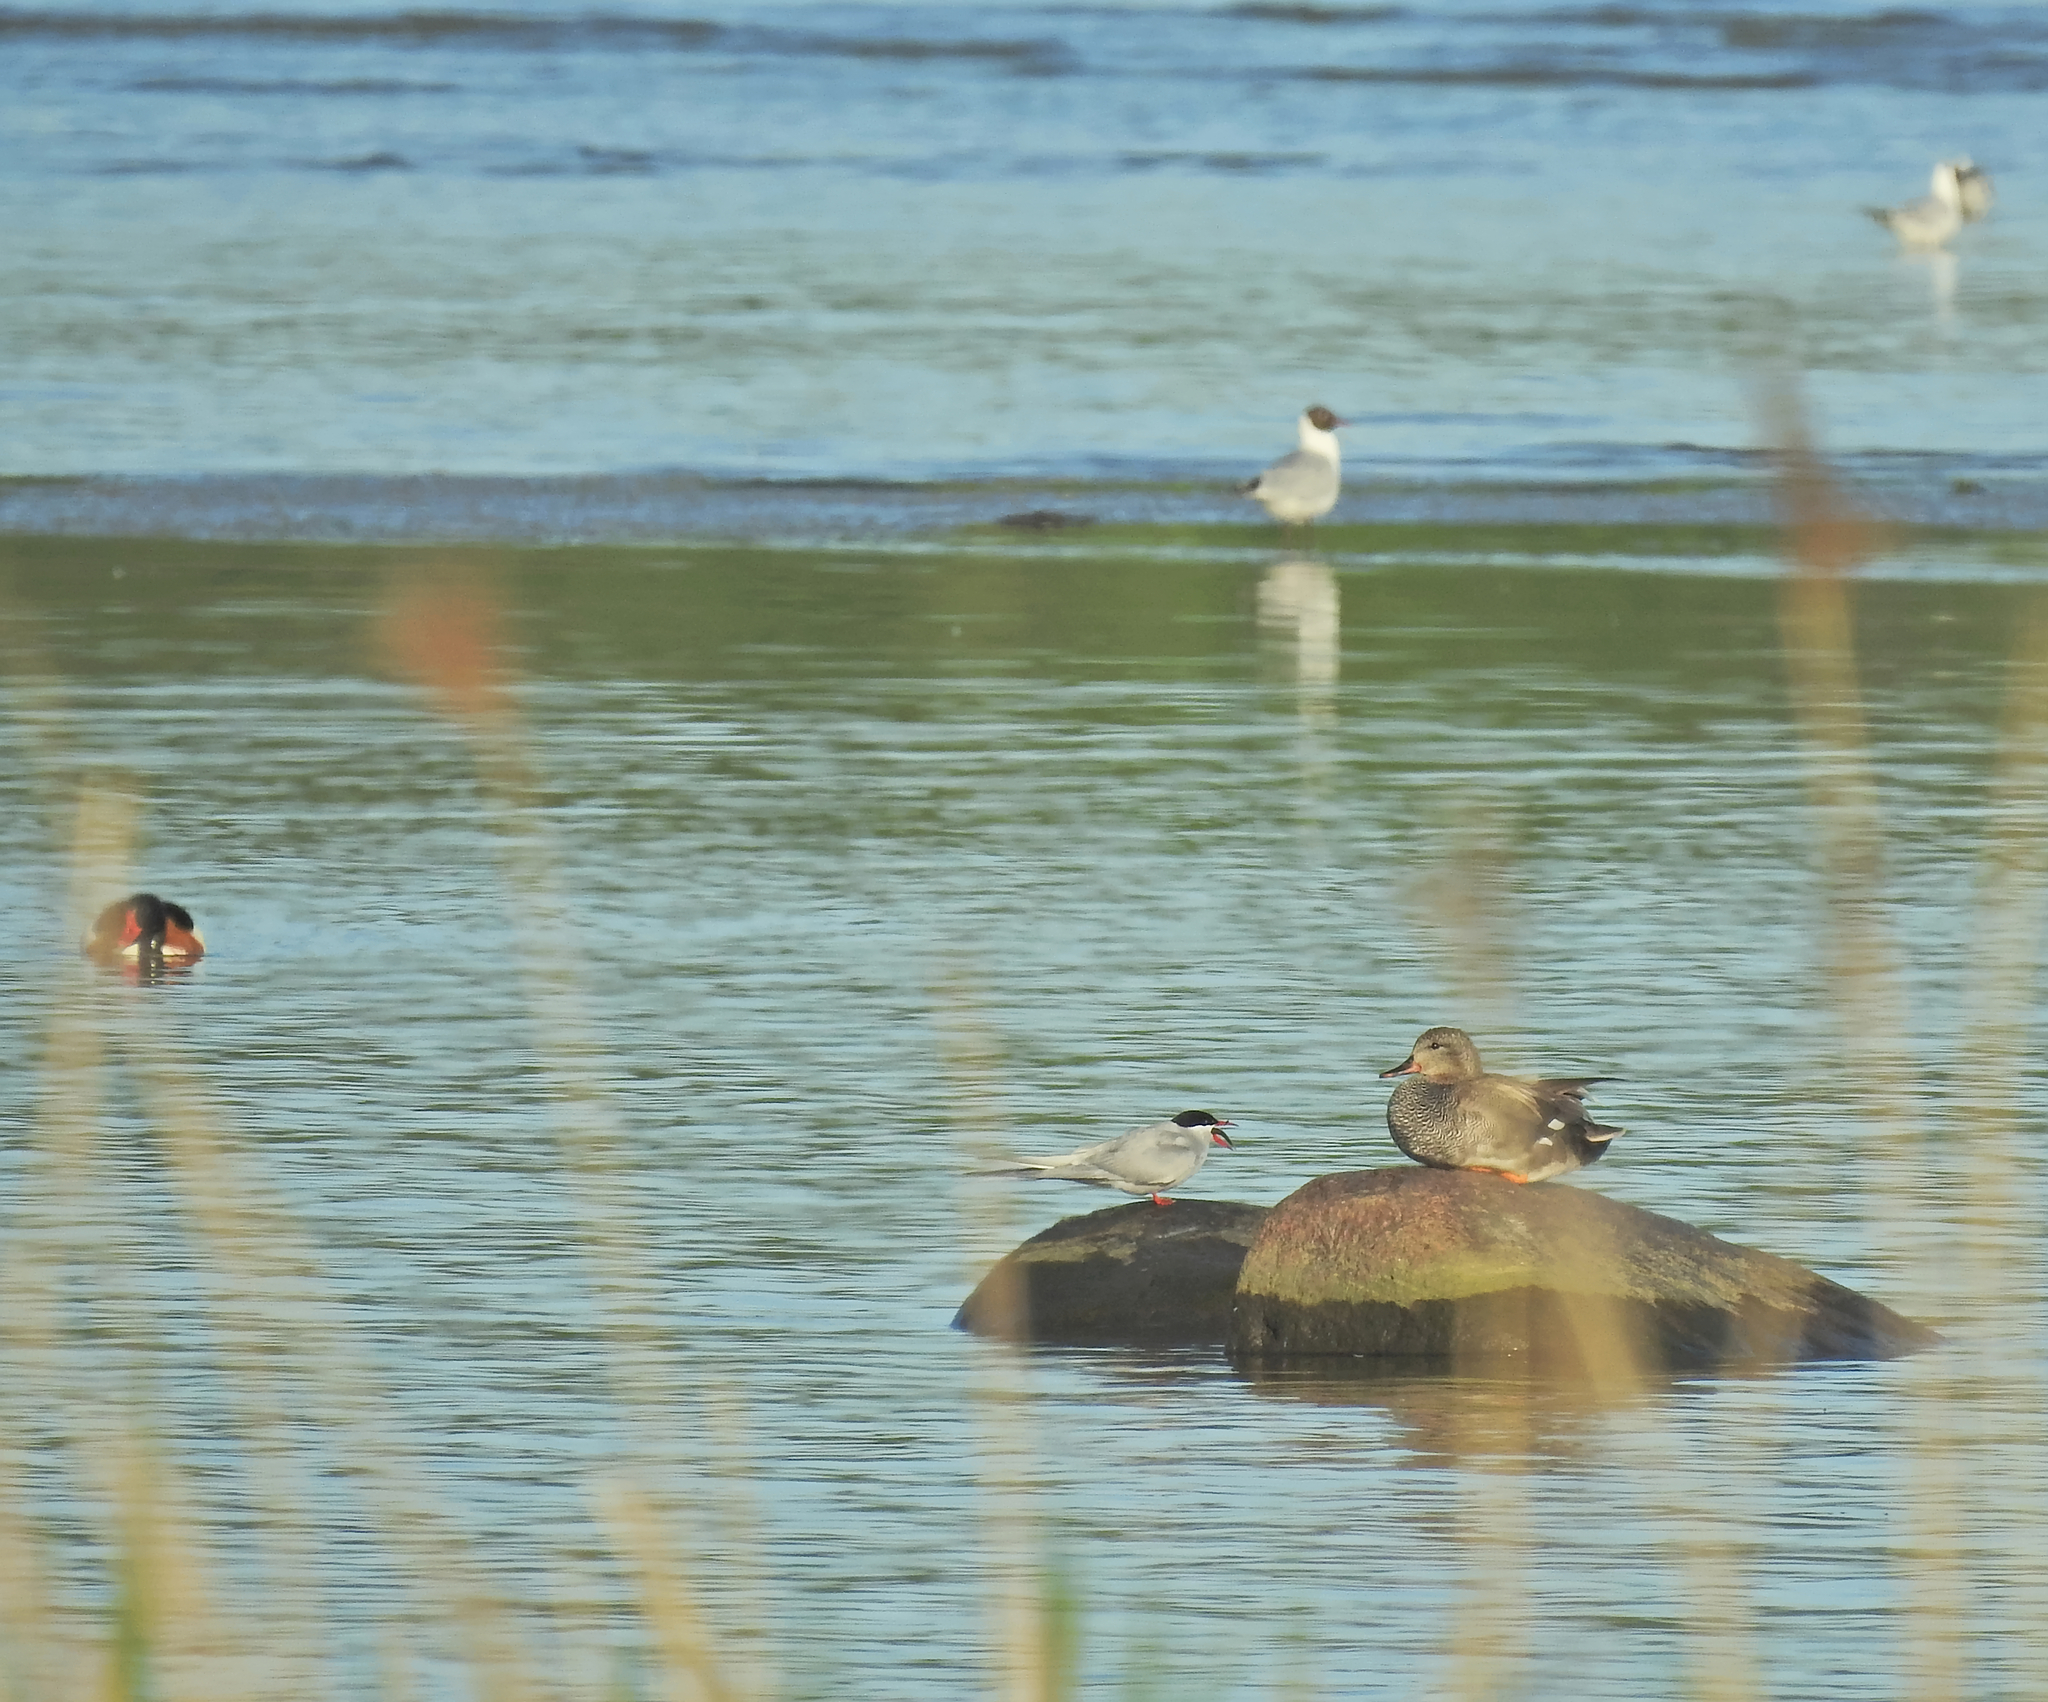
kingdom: Animalia
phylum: Chordata
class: Aves
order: Anseriformes
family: Anatidae
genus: Tadorna
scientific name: Tadorna tadorna
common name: Common shelduck
